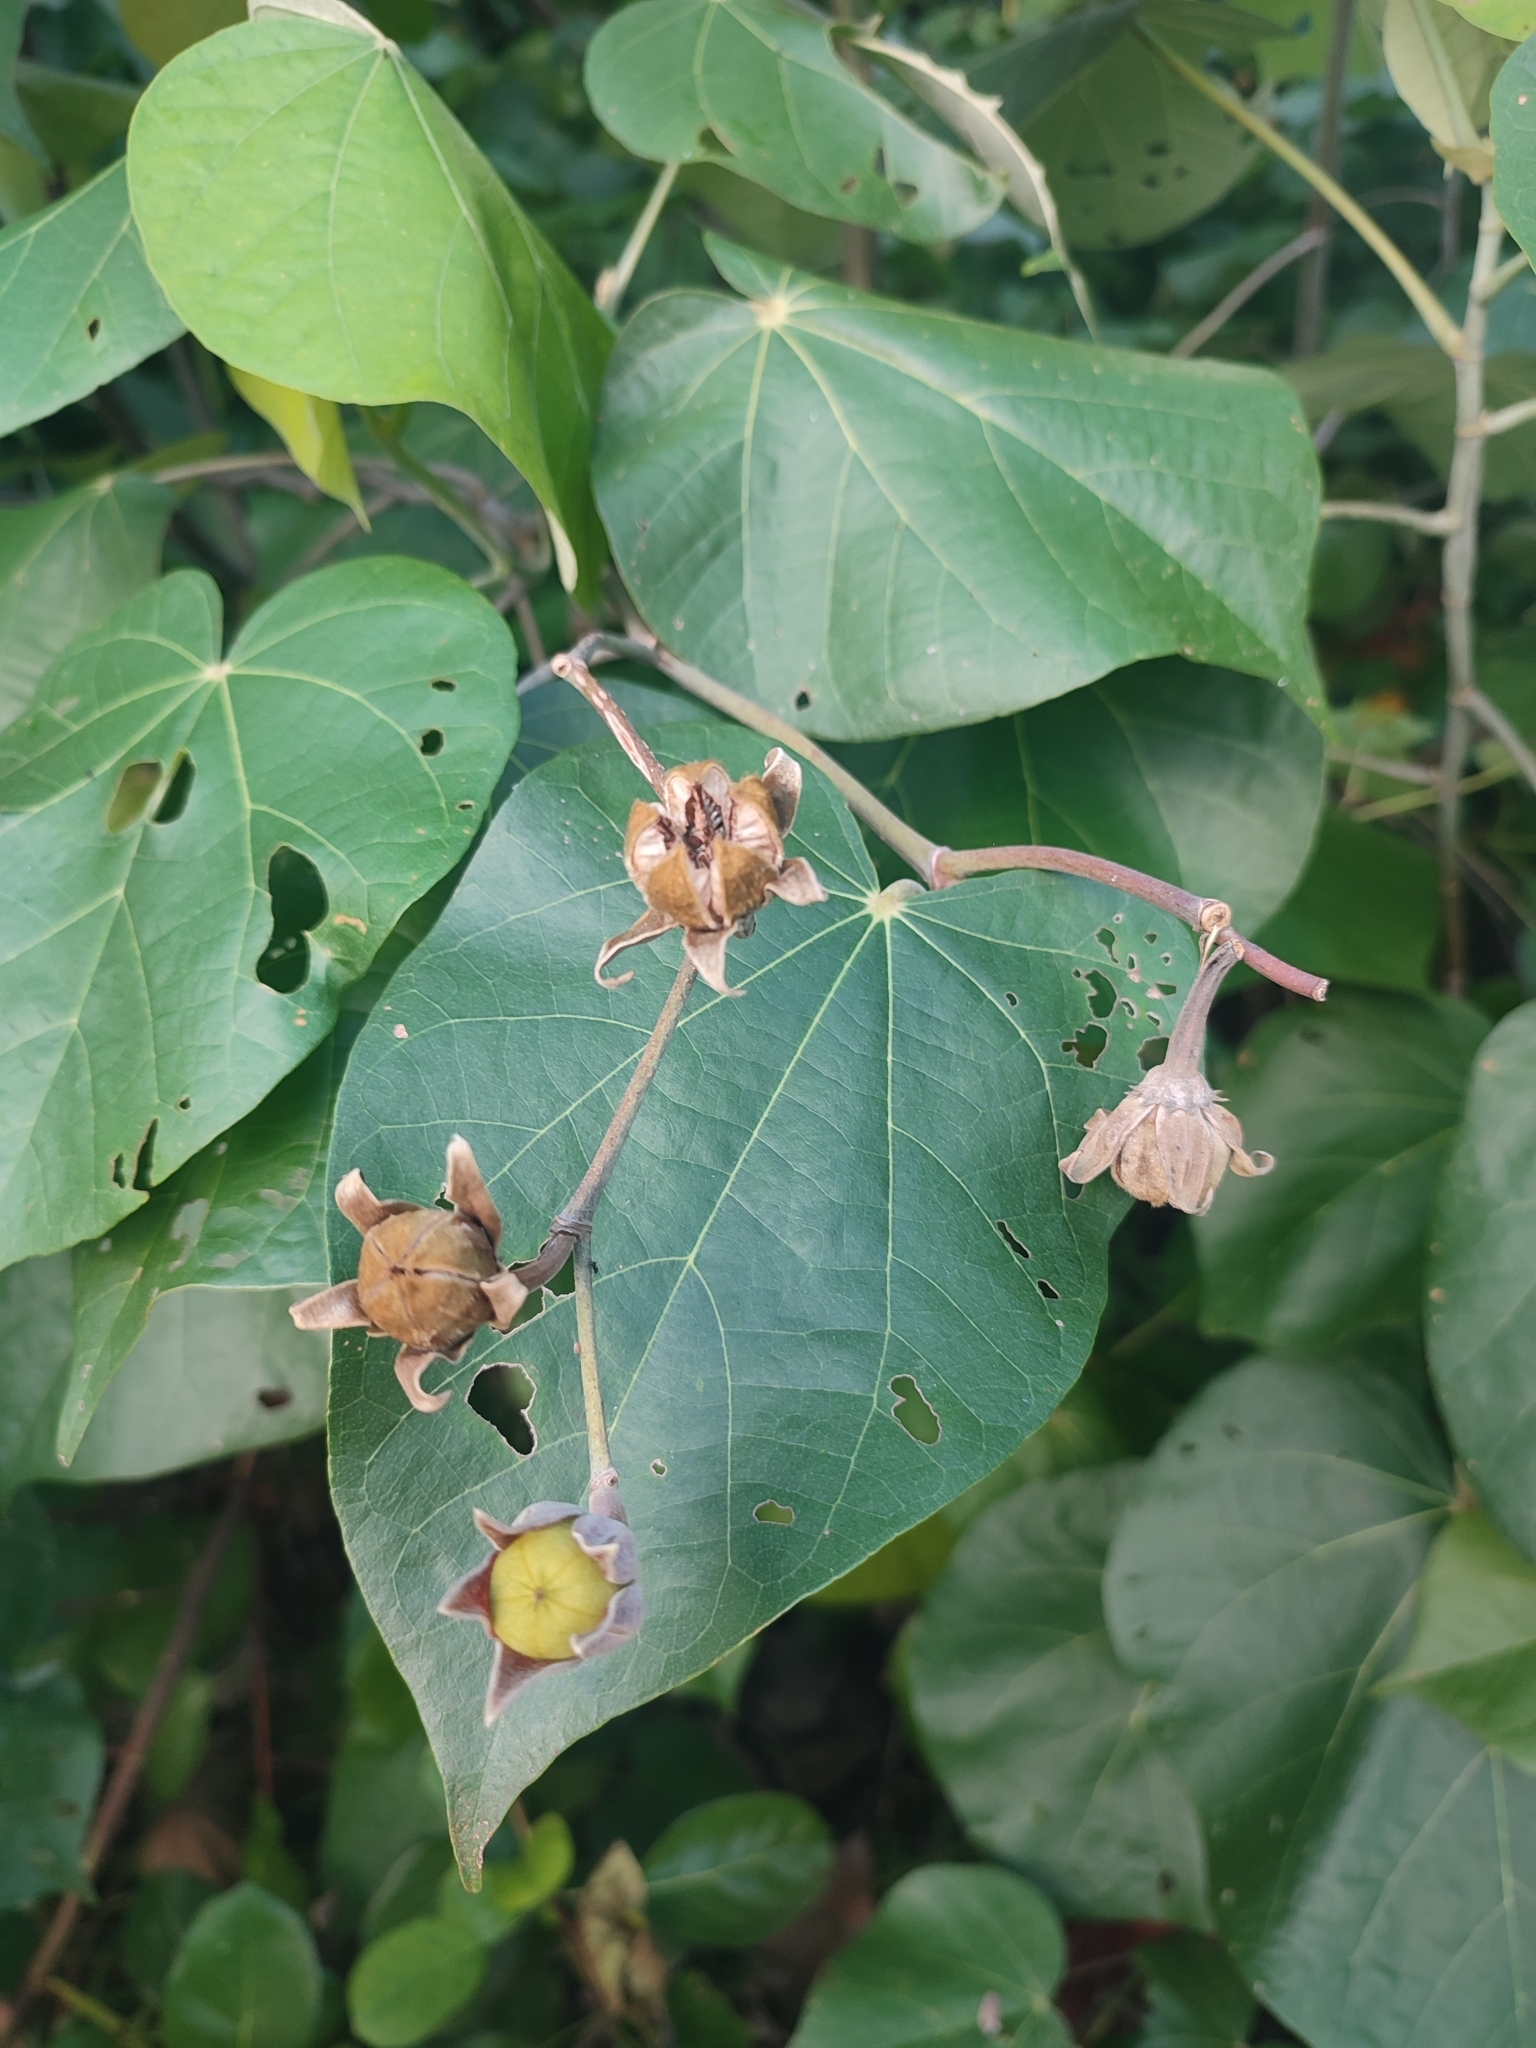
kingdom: Plantae
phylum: Tracheophyta
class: Magnoliopsida
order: Malvales
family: Malvaceae
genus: Talipariti
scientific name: Talipariti tiliaceum
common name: Sea hibiscus
